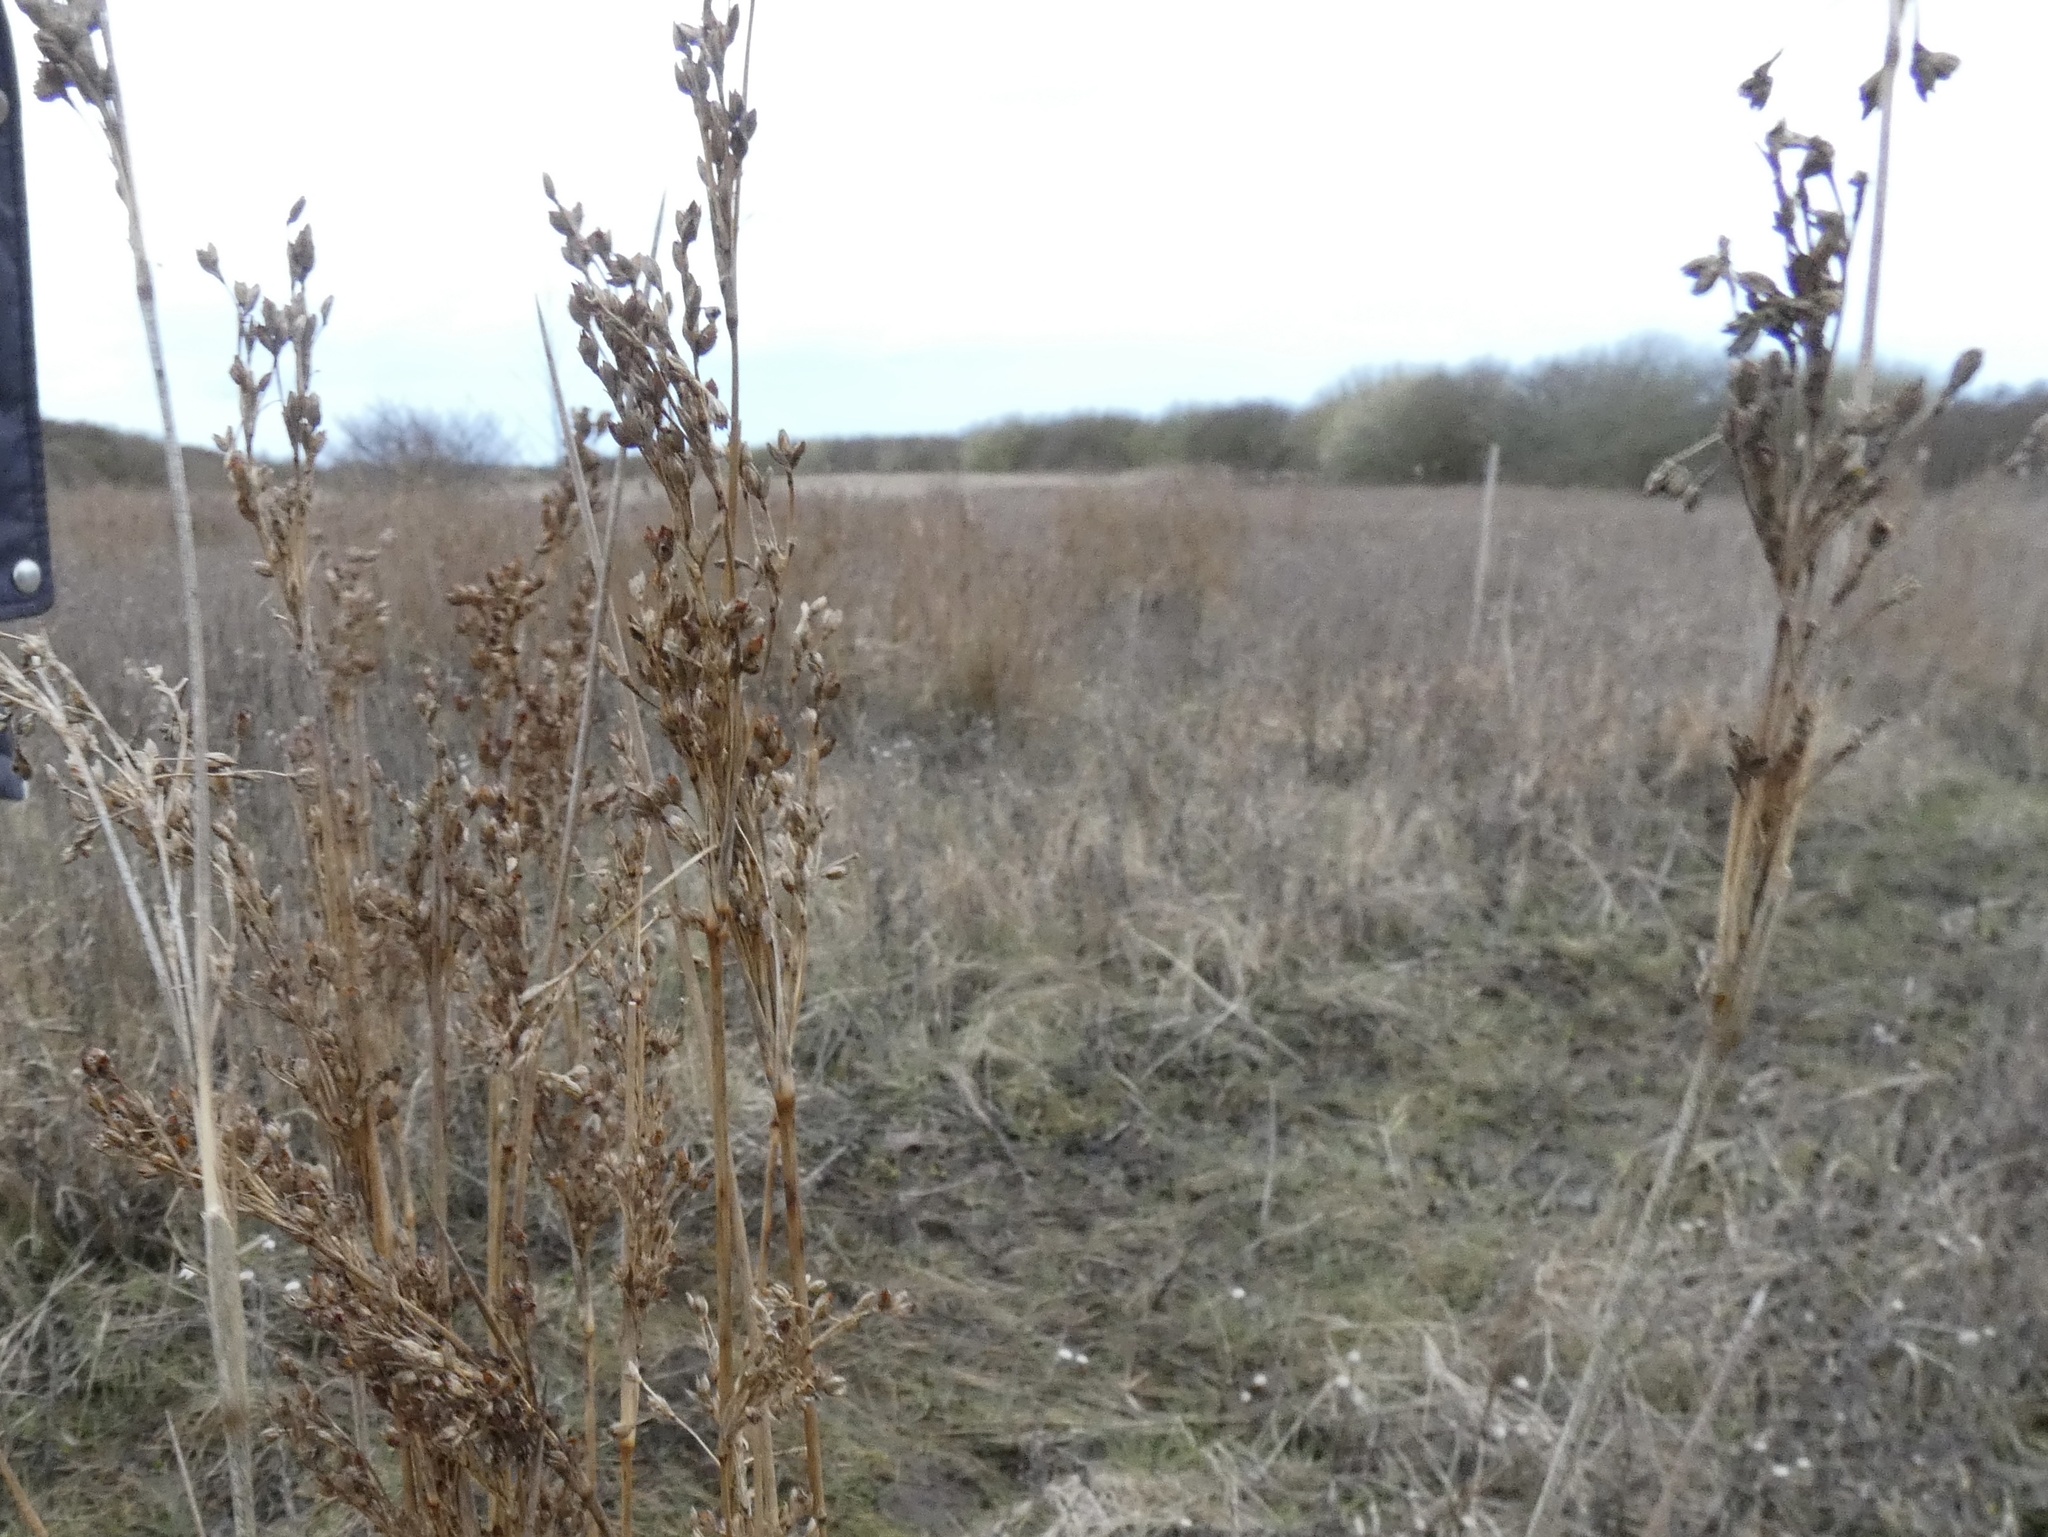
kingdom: Plantae
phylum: Tracheophyta
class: Liliopsida
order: Poales
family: Juncaceae
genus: Juncus
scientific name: Juncus maritimus
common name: Sea rush
